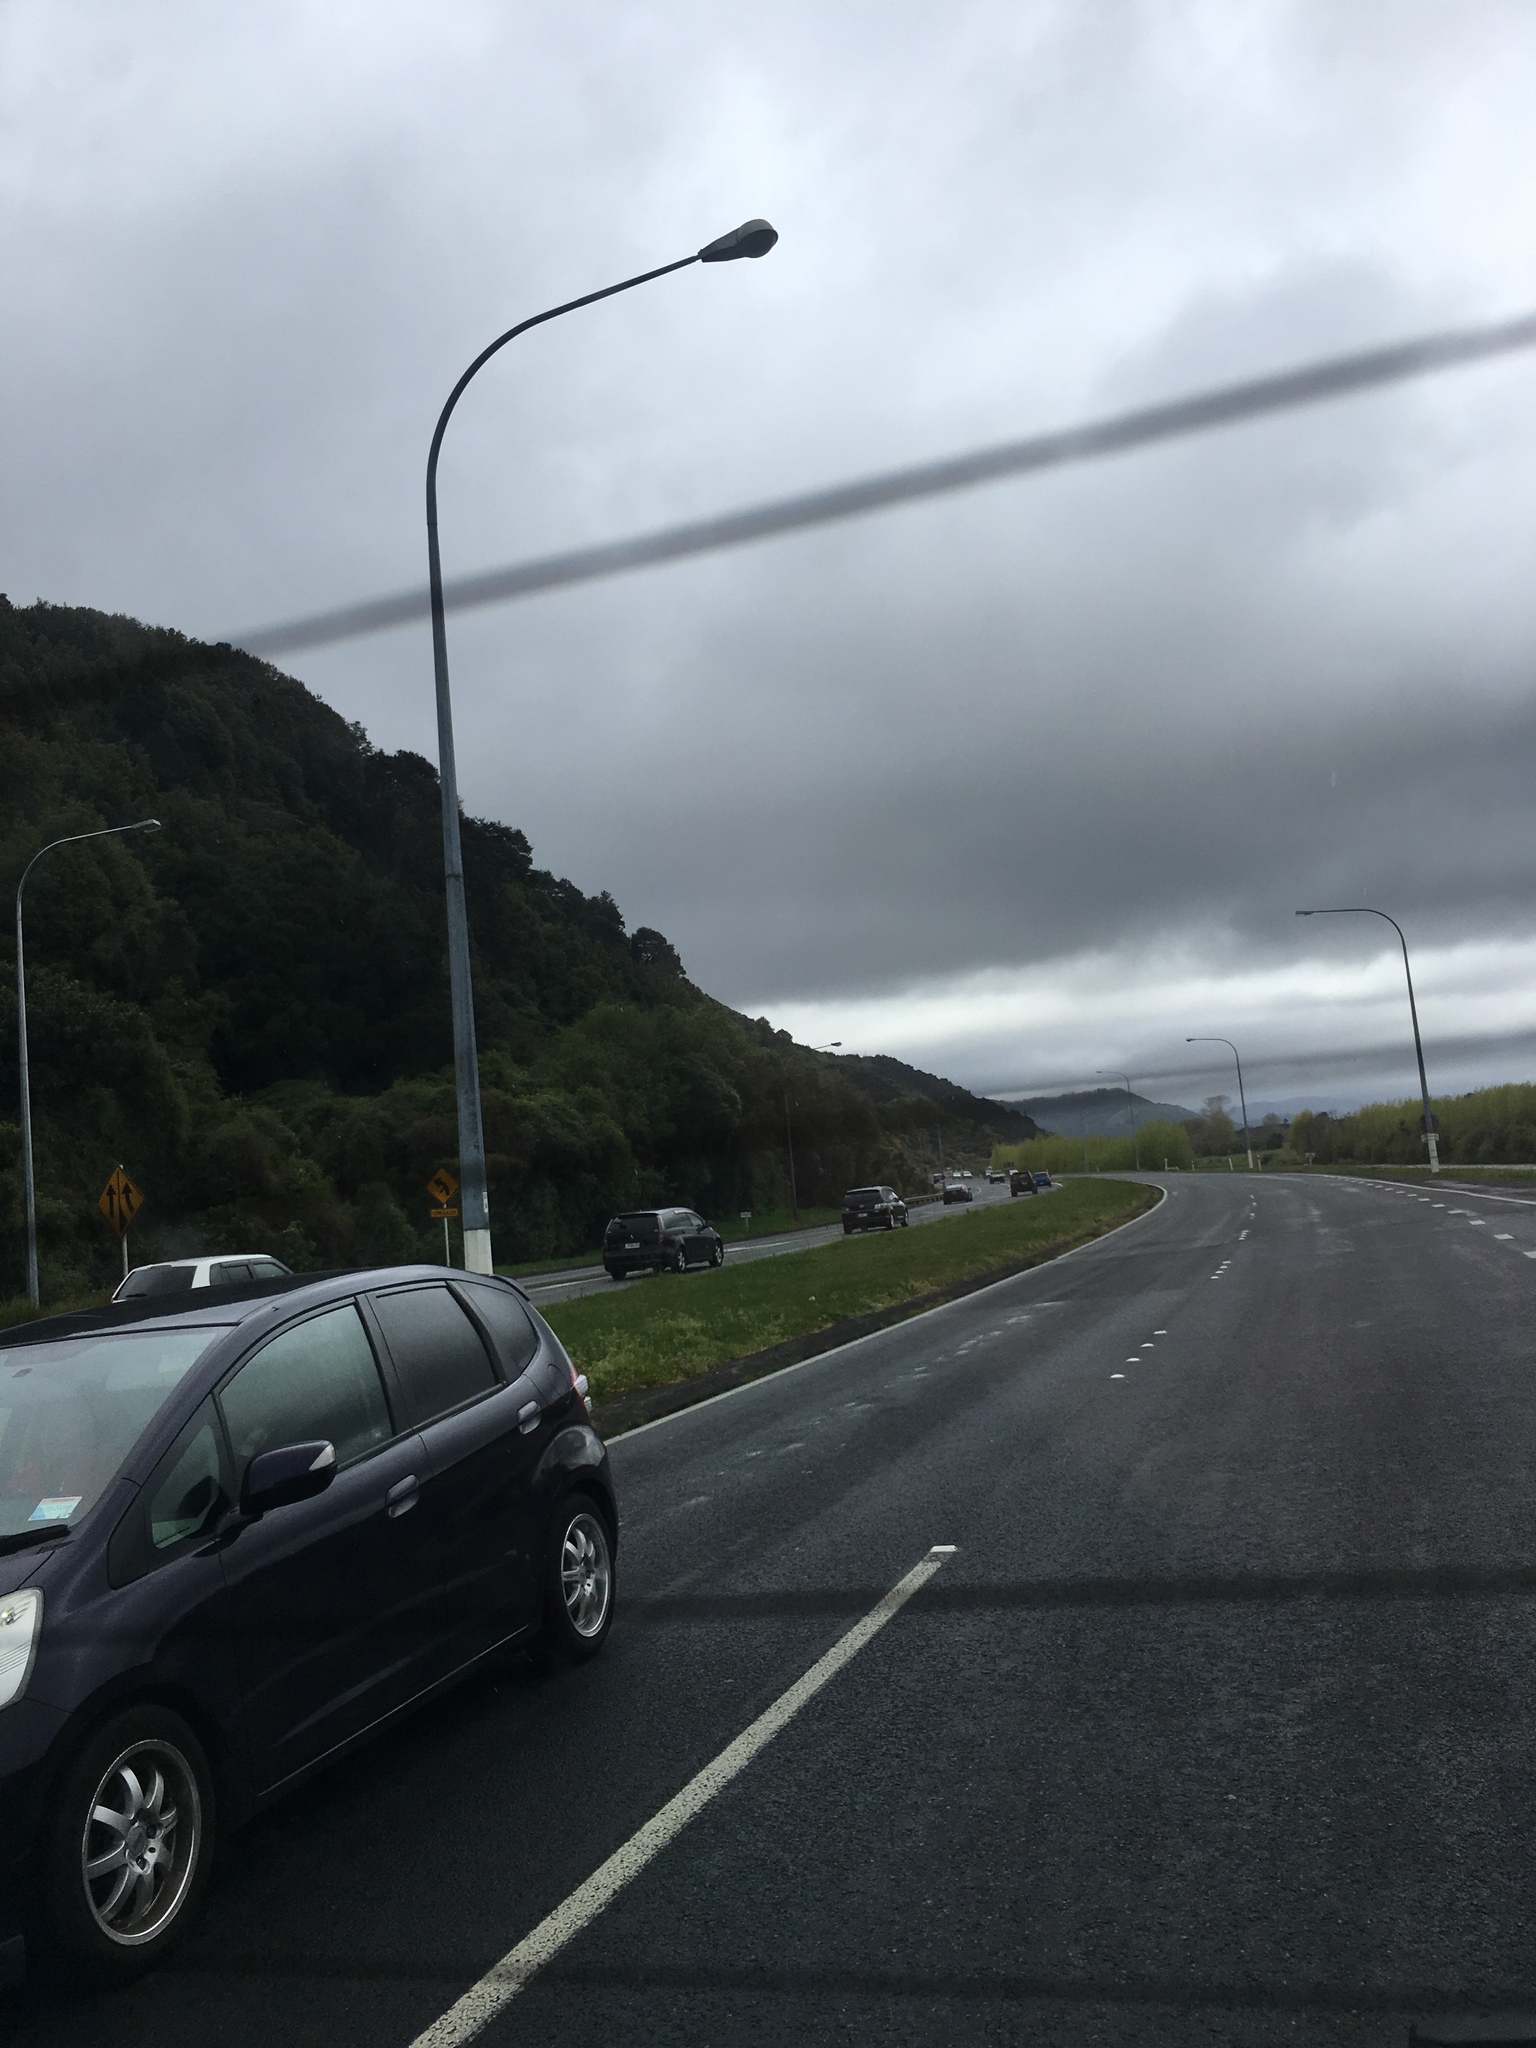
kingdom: Animalia
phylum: Chordata
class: Aves
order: Columbiformes
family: Columbidae
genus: Hemiphaga
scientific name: Hemiphaga novaeseelandiae
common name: New zealand pigeon
